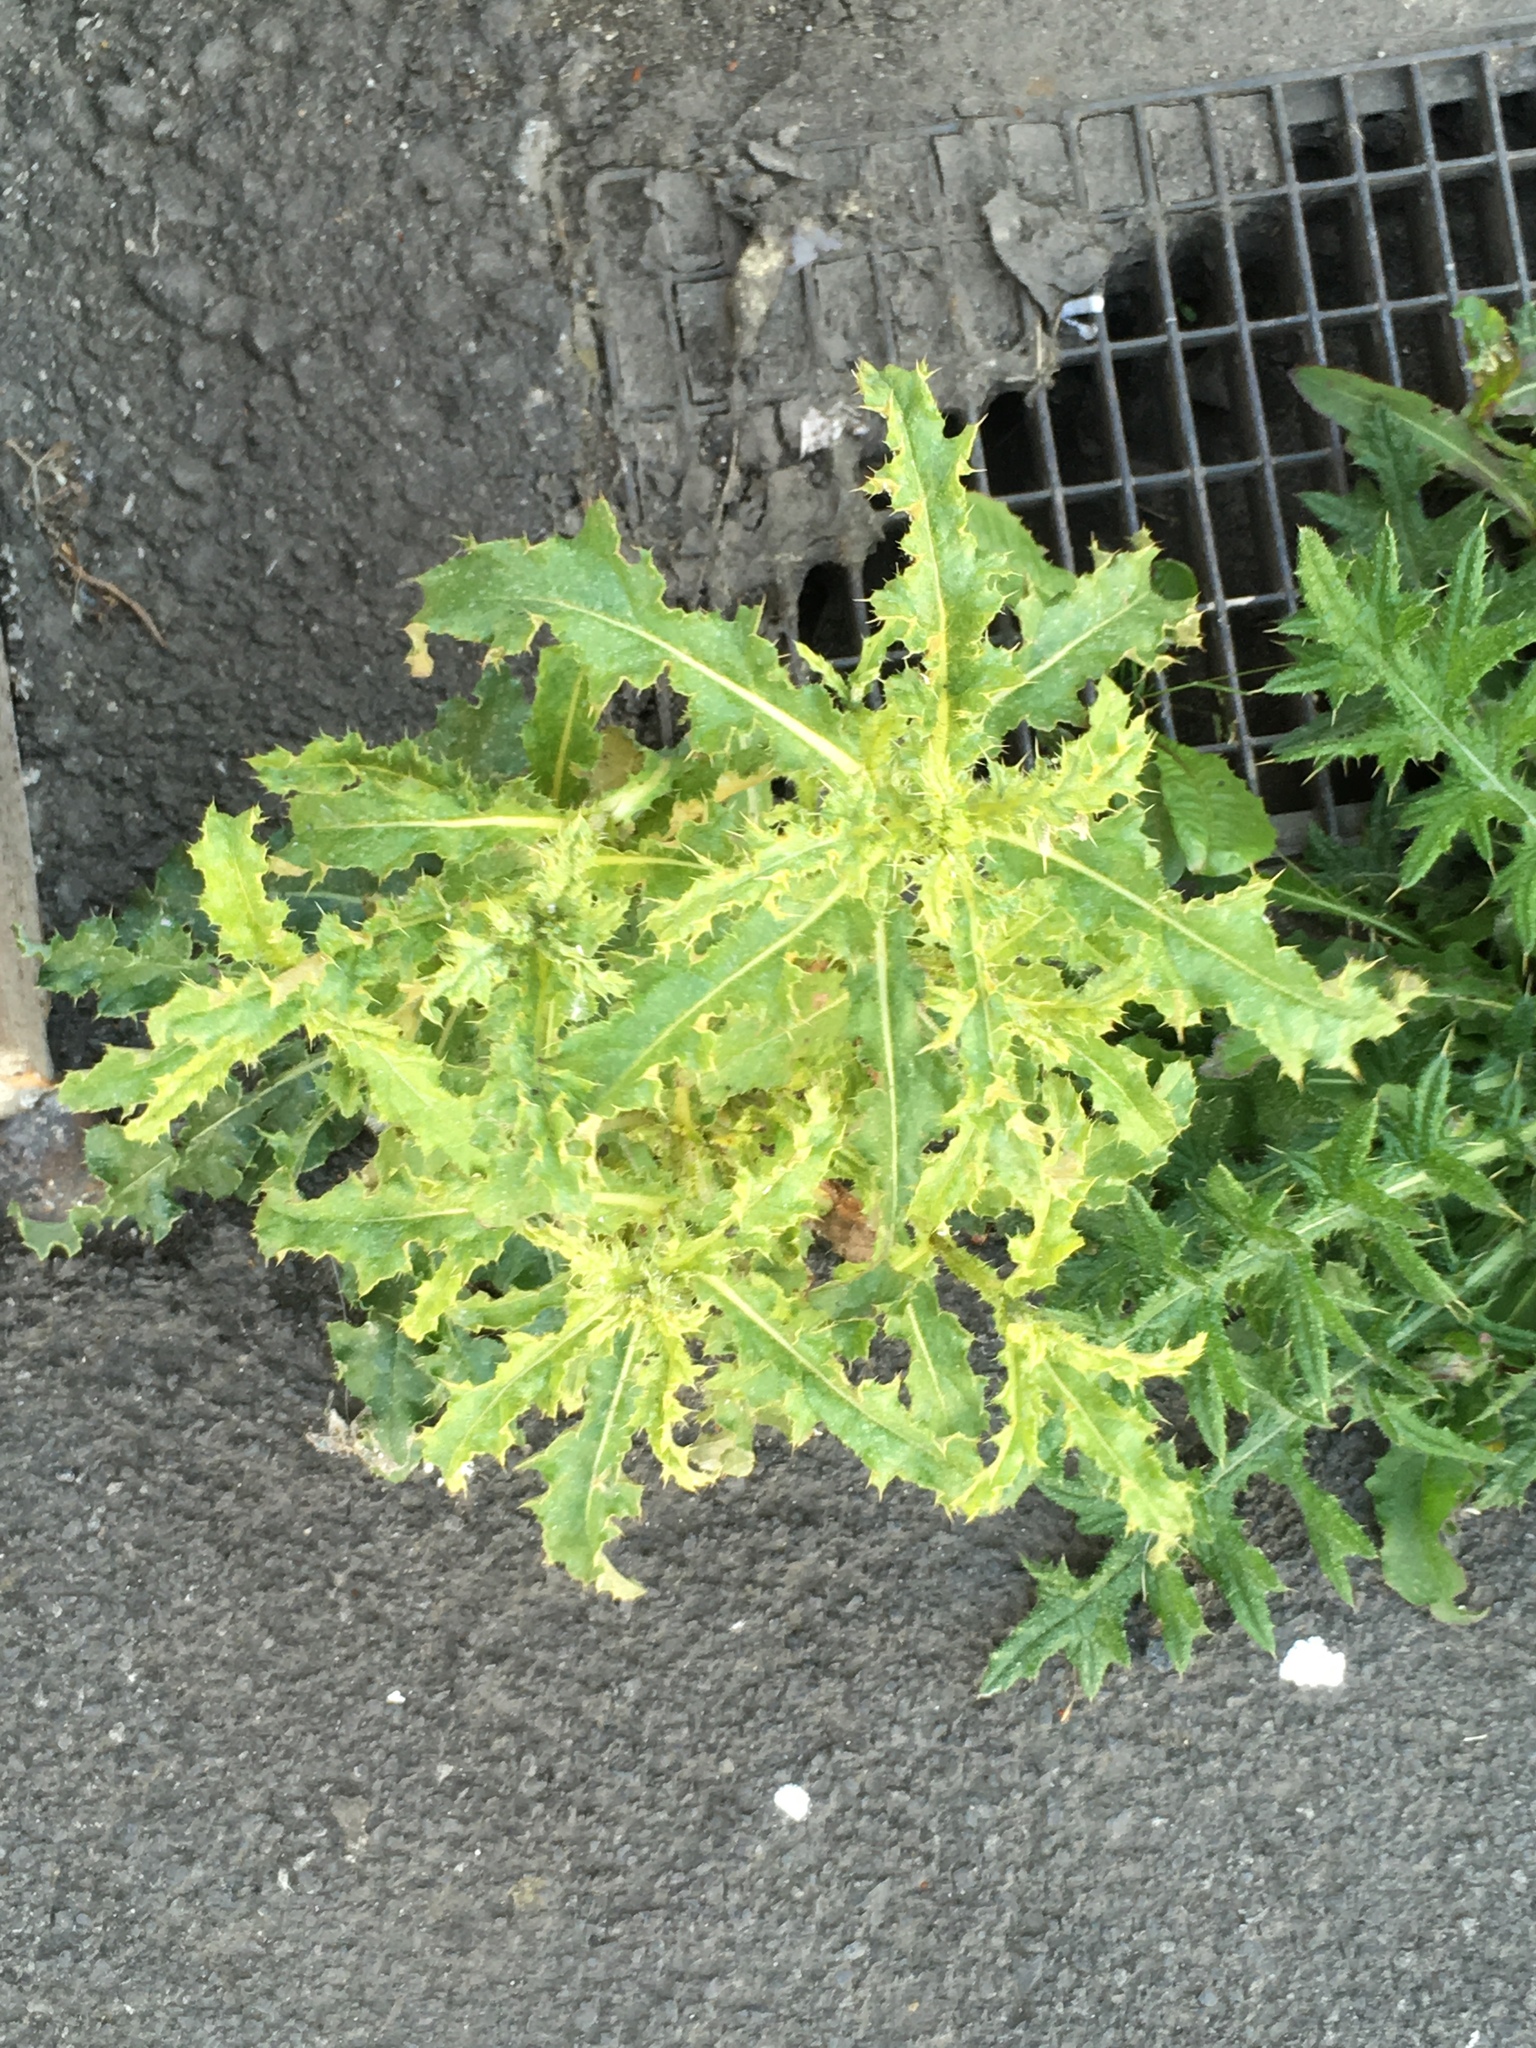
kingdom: Plantae
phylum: Tracheophyta
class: Magnoliopsida
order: Asterales
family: Asteraceae
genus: Cirsium
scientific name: Cirsium arvense
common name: Creeping thistle
